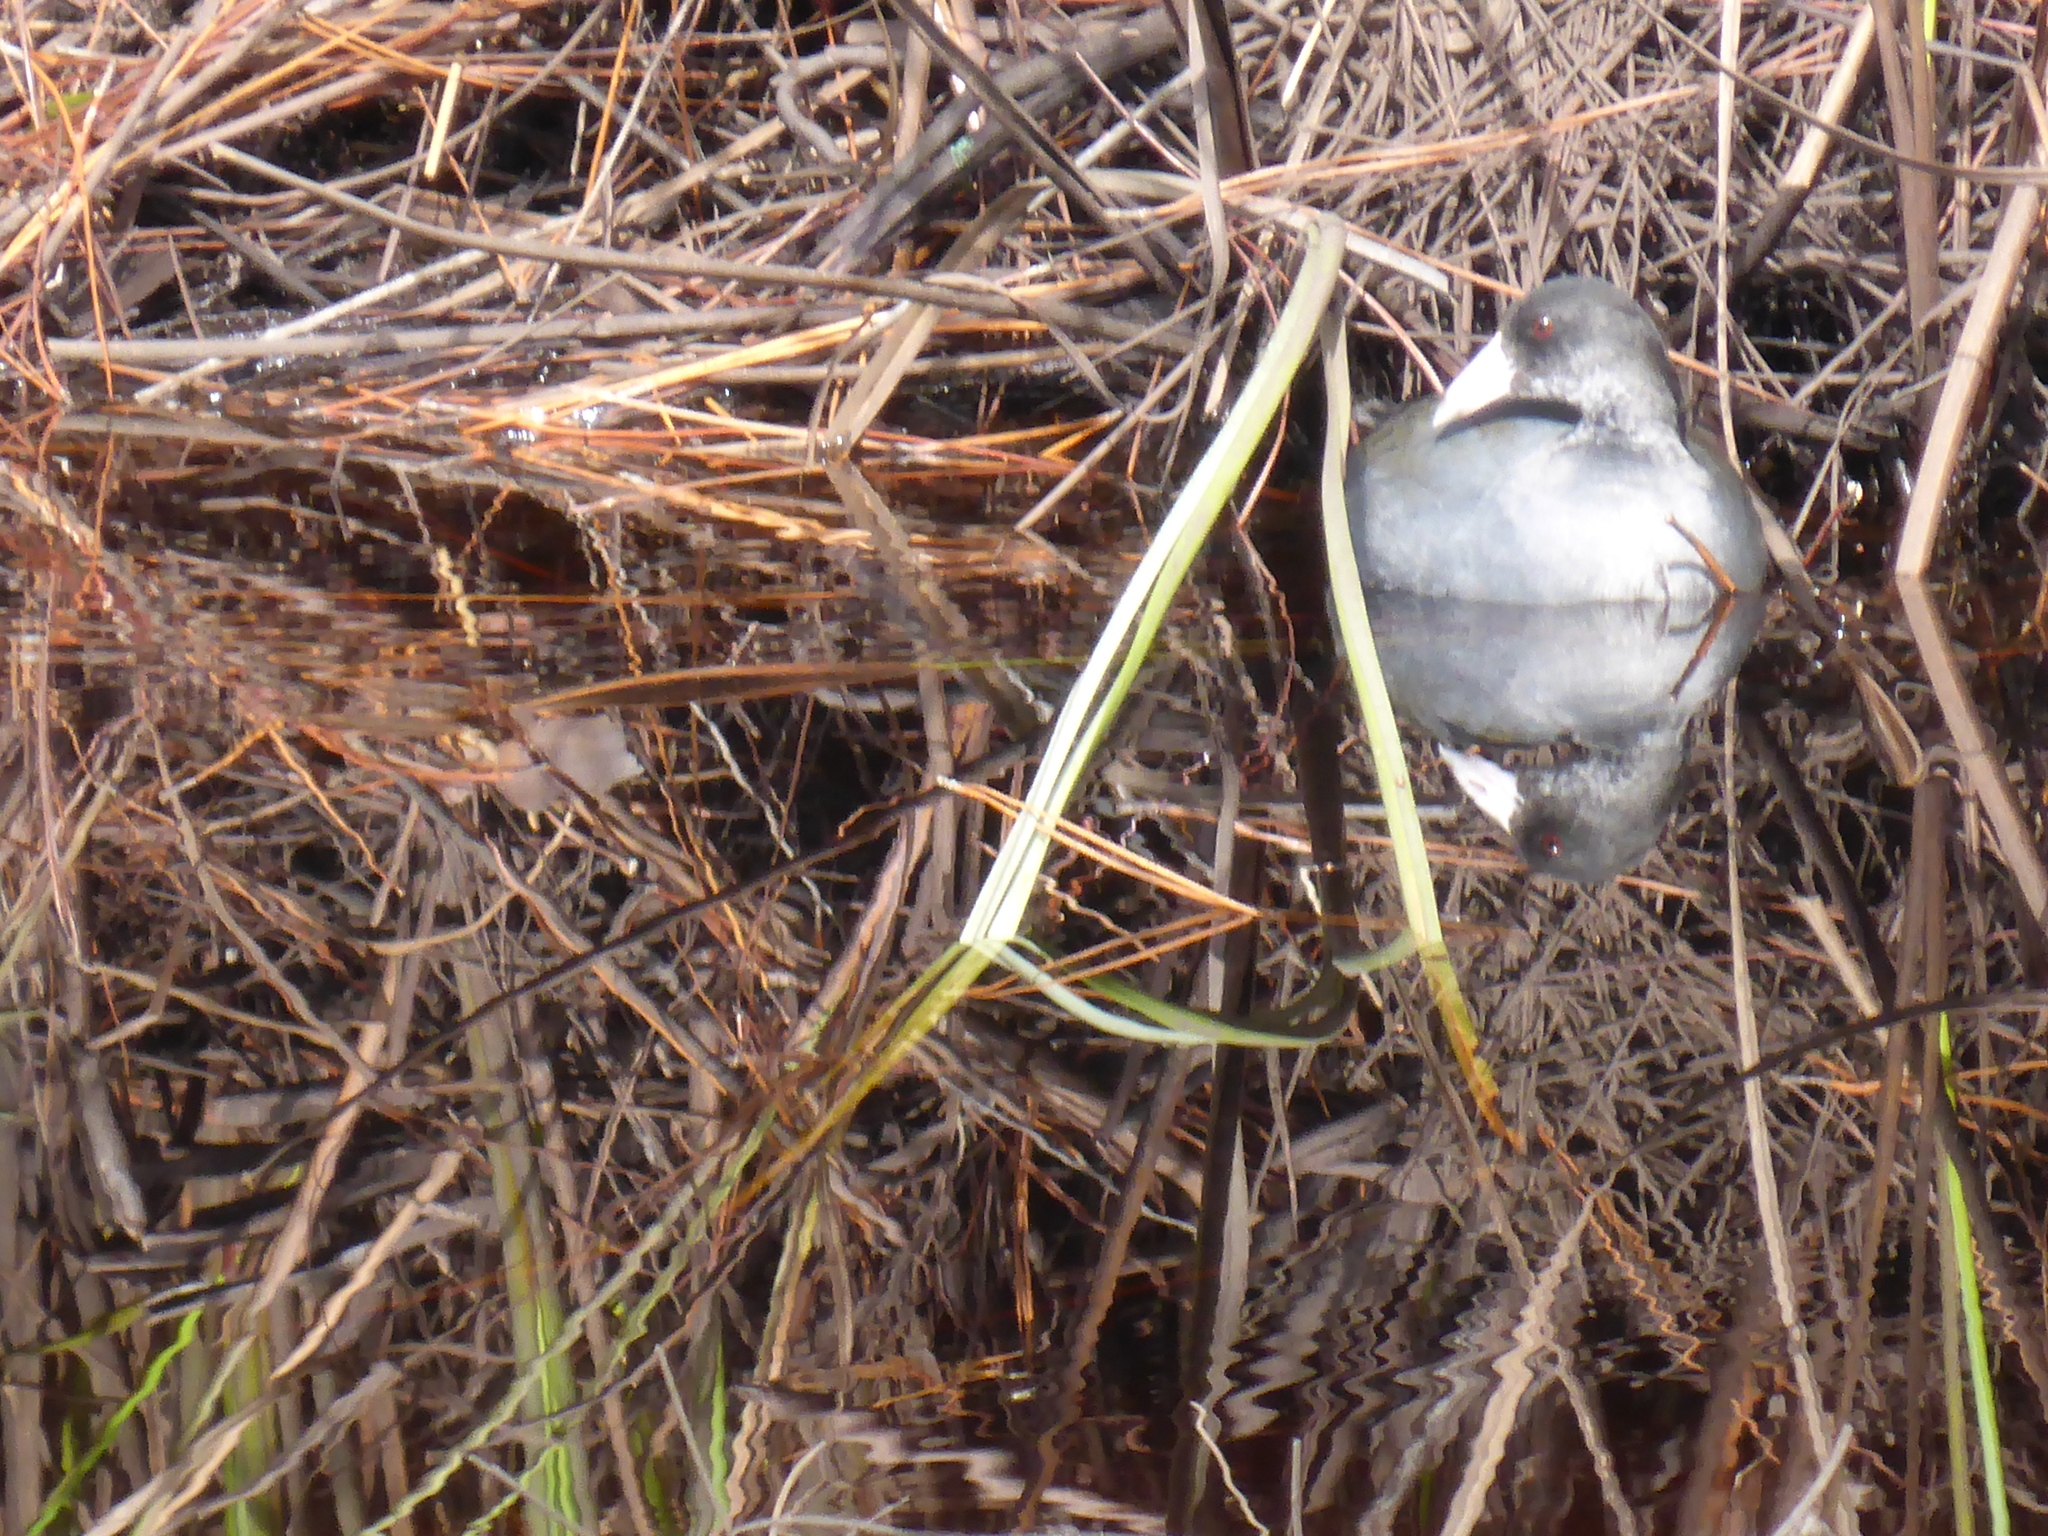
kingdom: Animalia
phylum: Chordata
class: Aves
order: Gruiformes
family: Rallidae
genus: Fulica
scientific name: Fulica americana
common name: American coot
